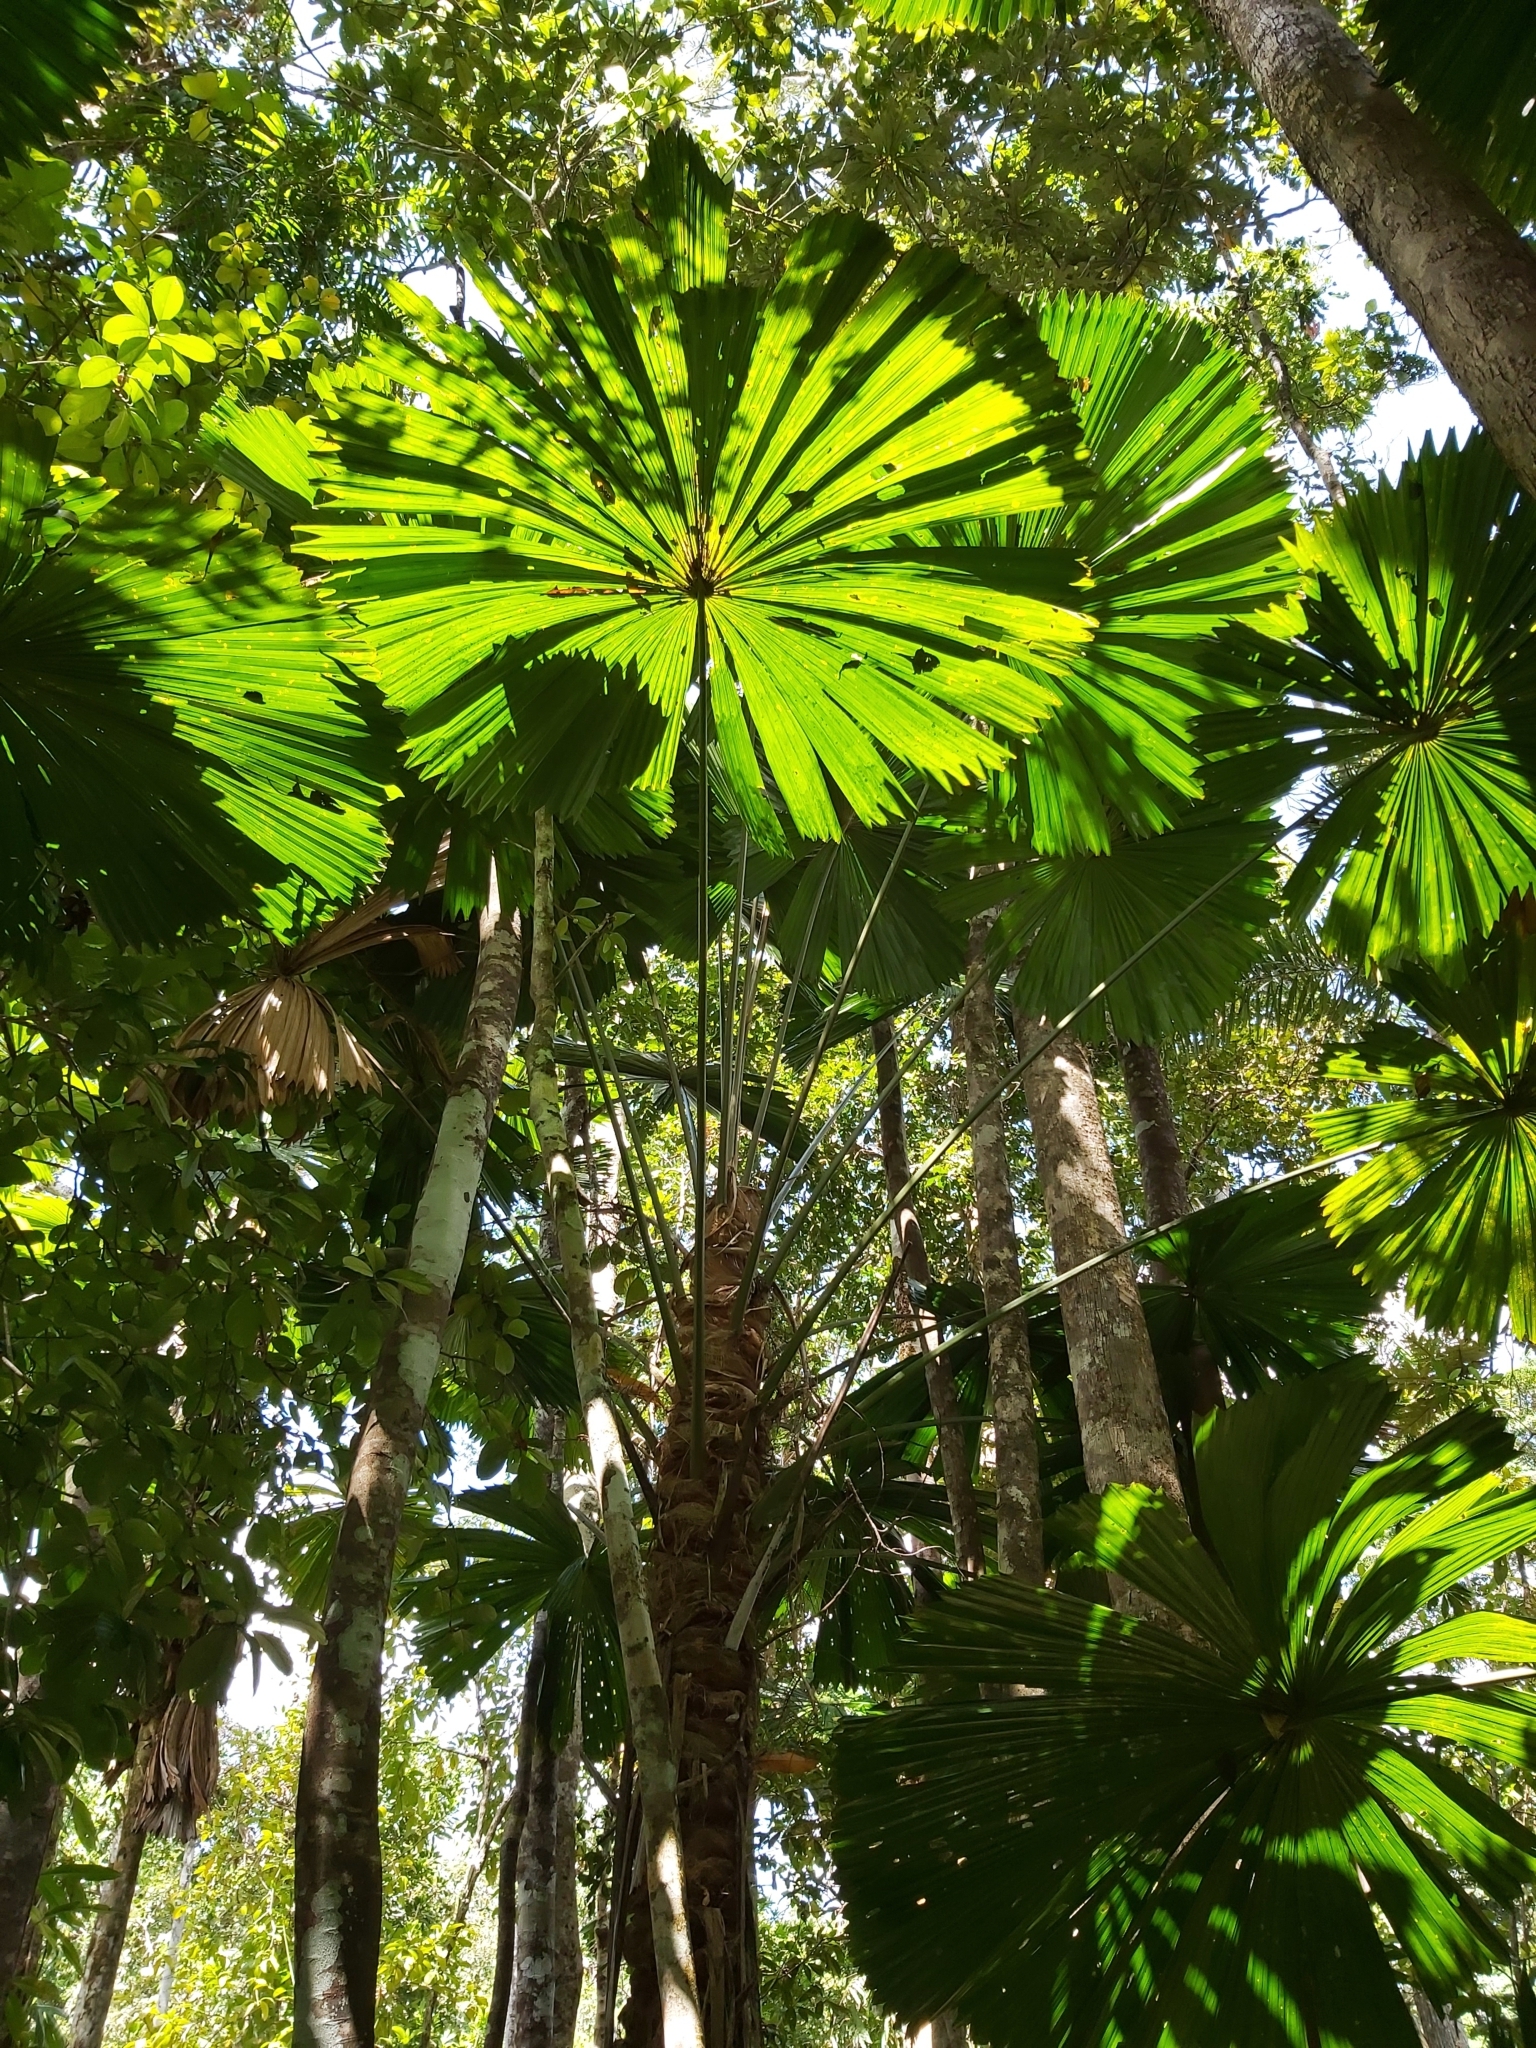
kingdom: Plantae
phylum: Tracheophyta
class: Liliopsida
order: Arecales
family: Arecaceae
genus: Licuala
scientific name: Licuala ramsayi
